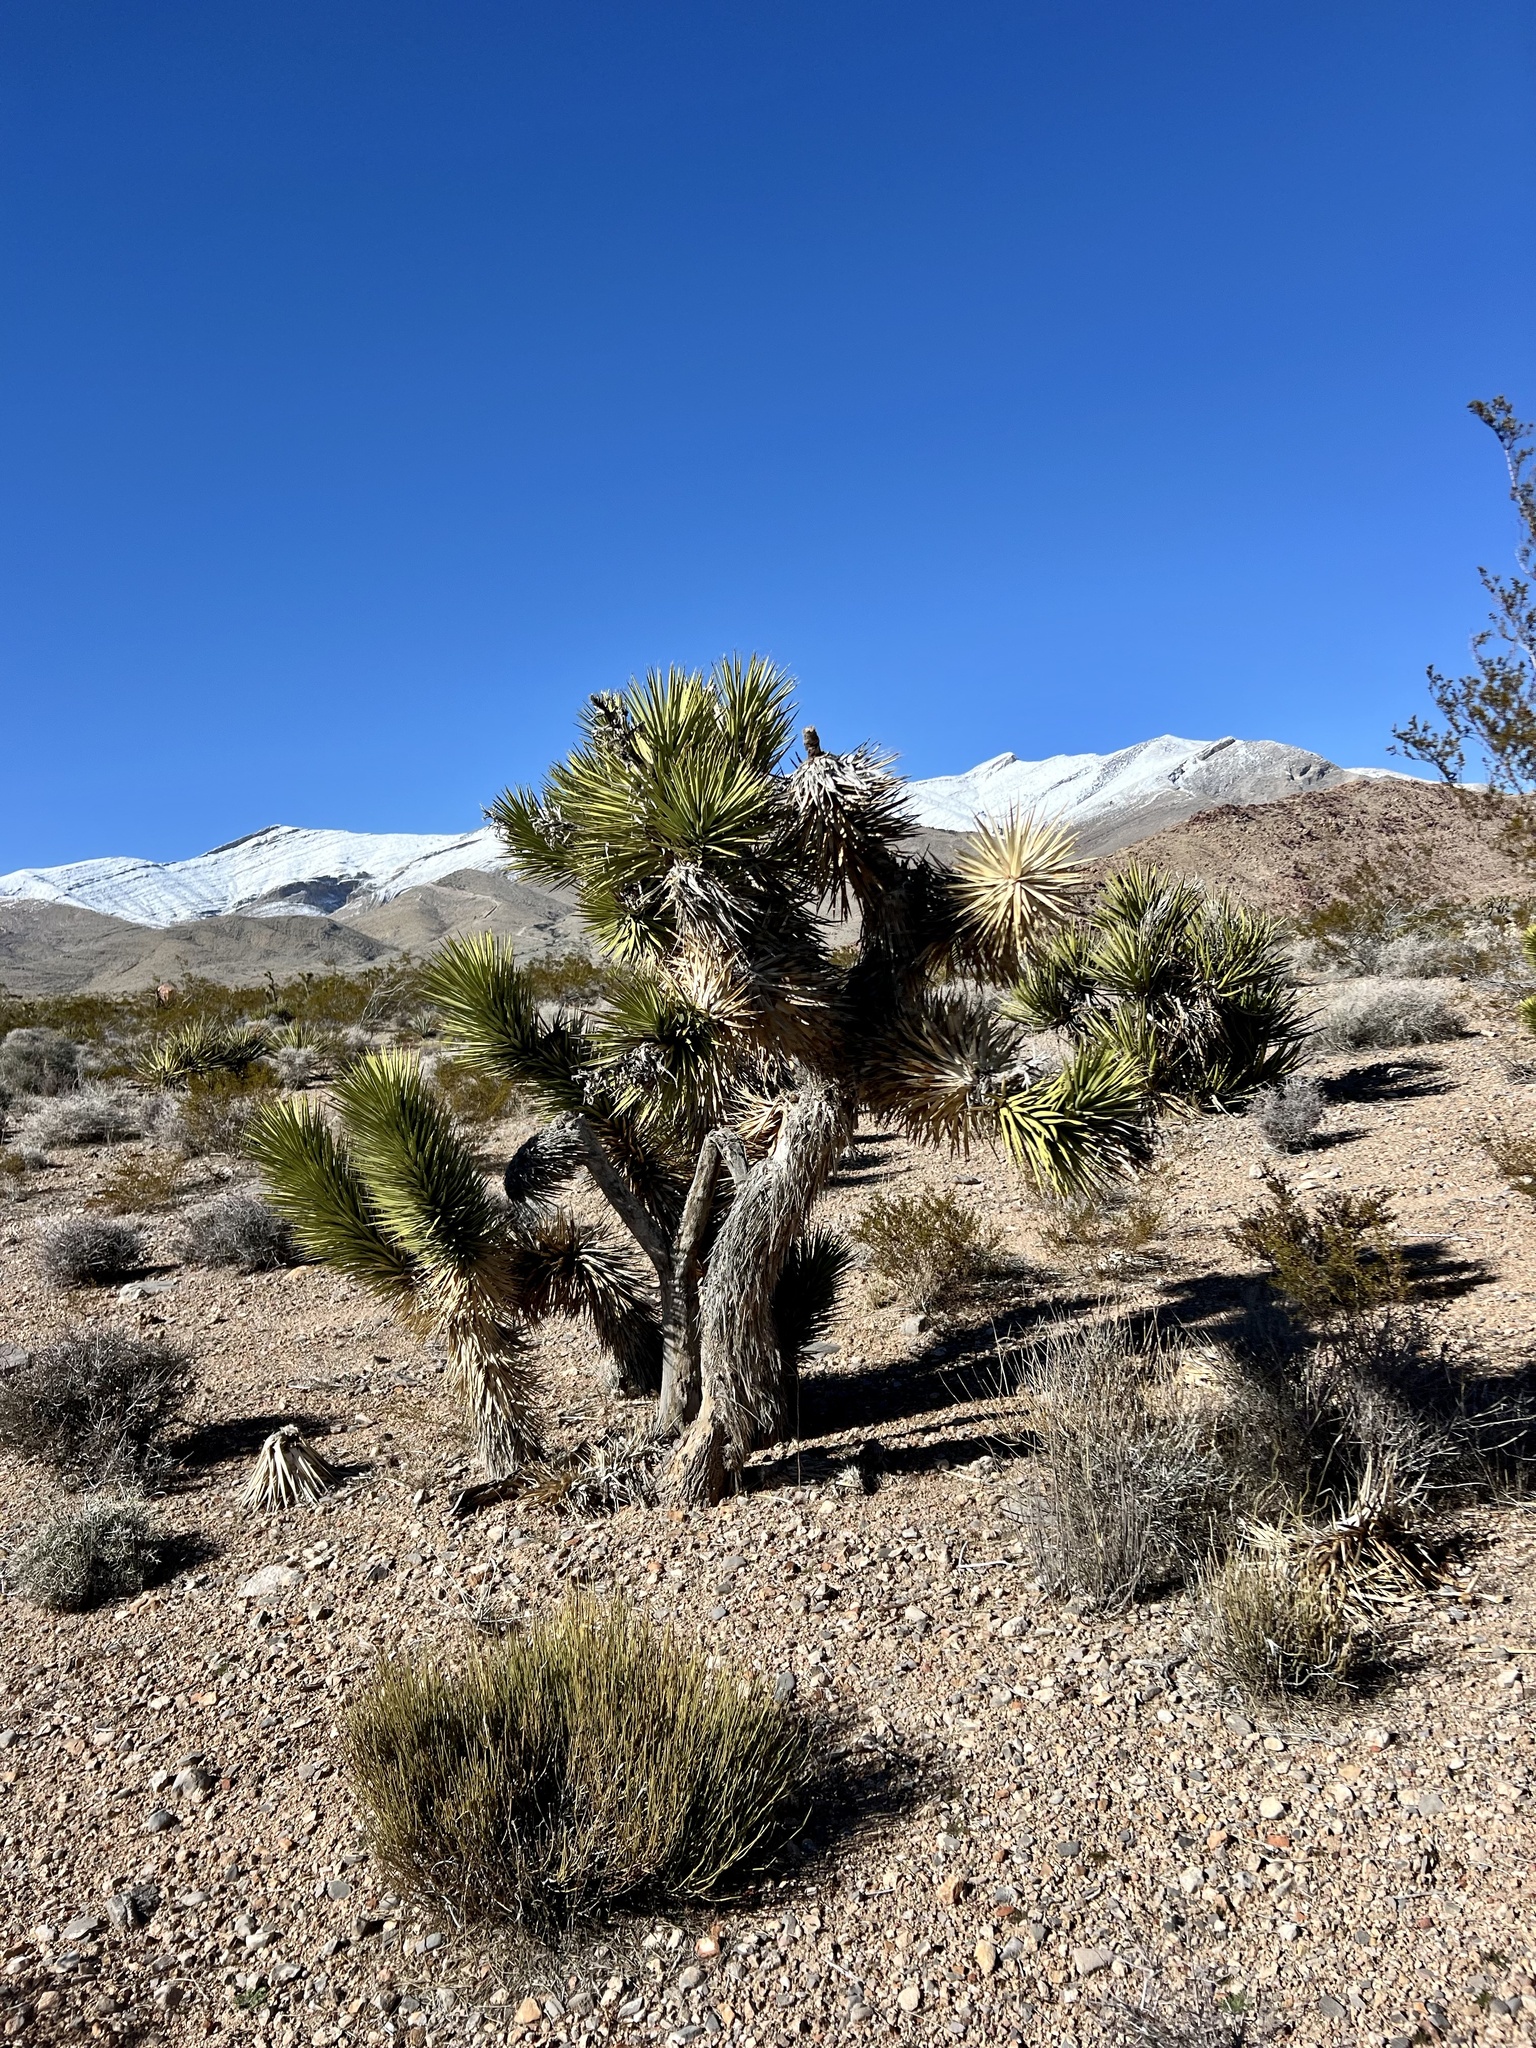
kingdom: Plantae
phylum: Tracheophyta
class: Liliopsida
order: Asparagales
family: Asparagaceae
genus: Yucca
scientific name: Yucca brevifolia
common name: Joshua tree
